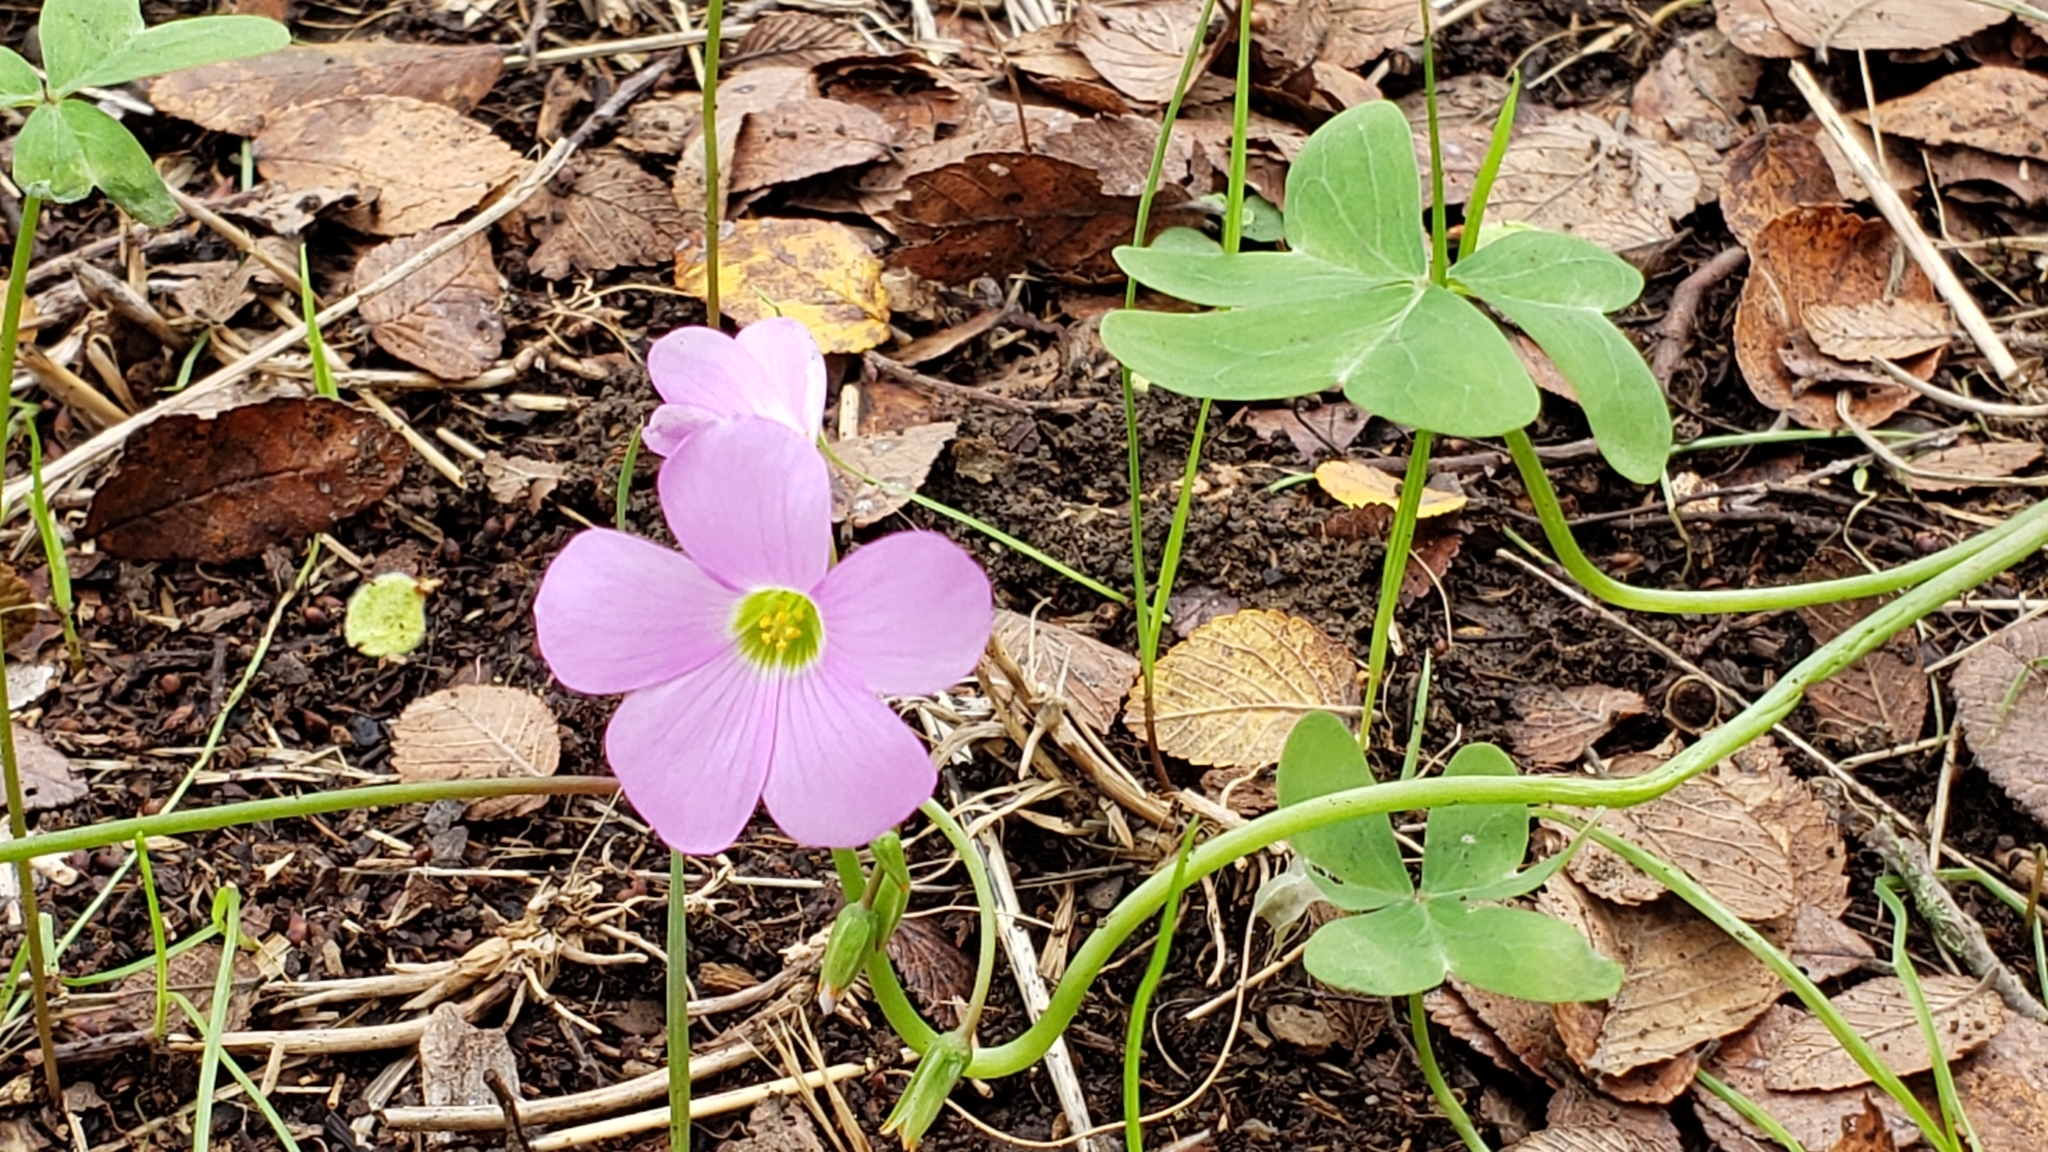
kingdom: Plantae
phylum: Tracheophyta
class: Magnoliopsida
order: Oxalidales
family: Oxalidaceae
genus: Oxalis
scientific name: Oxalis drummondii
